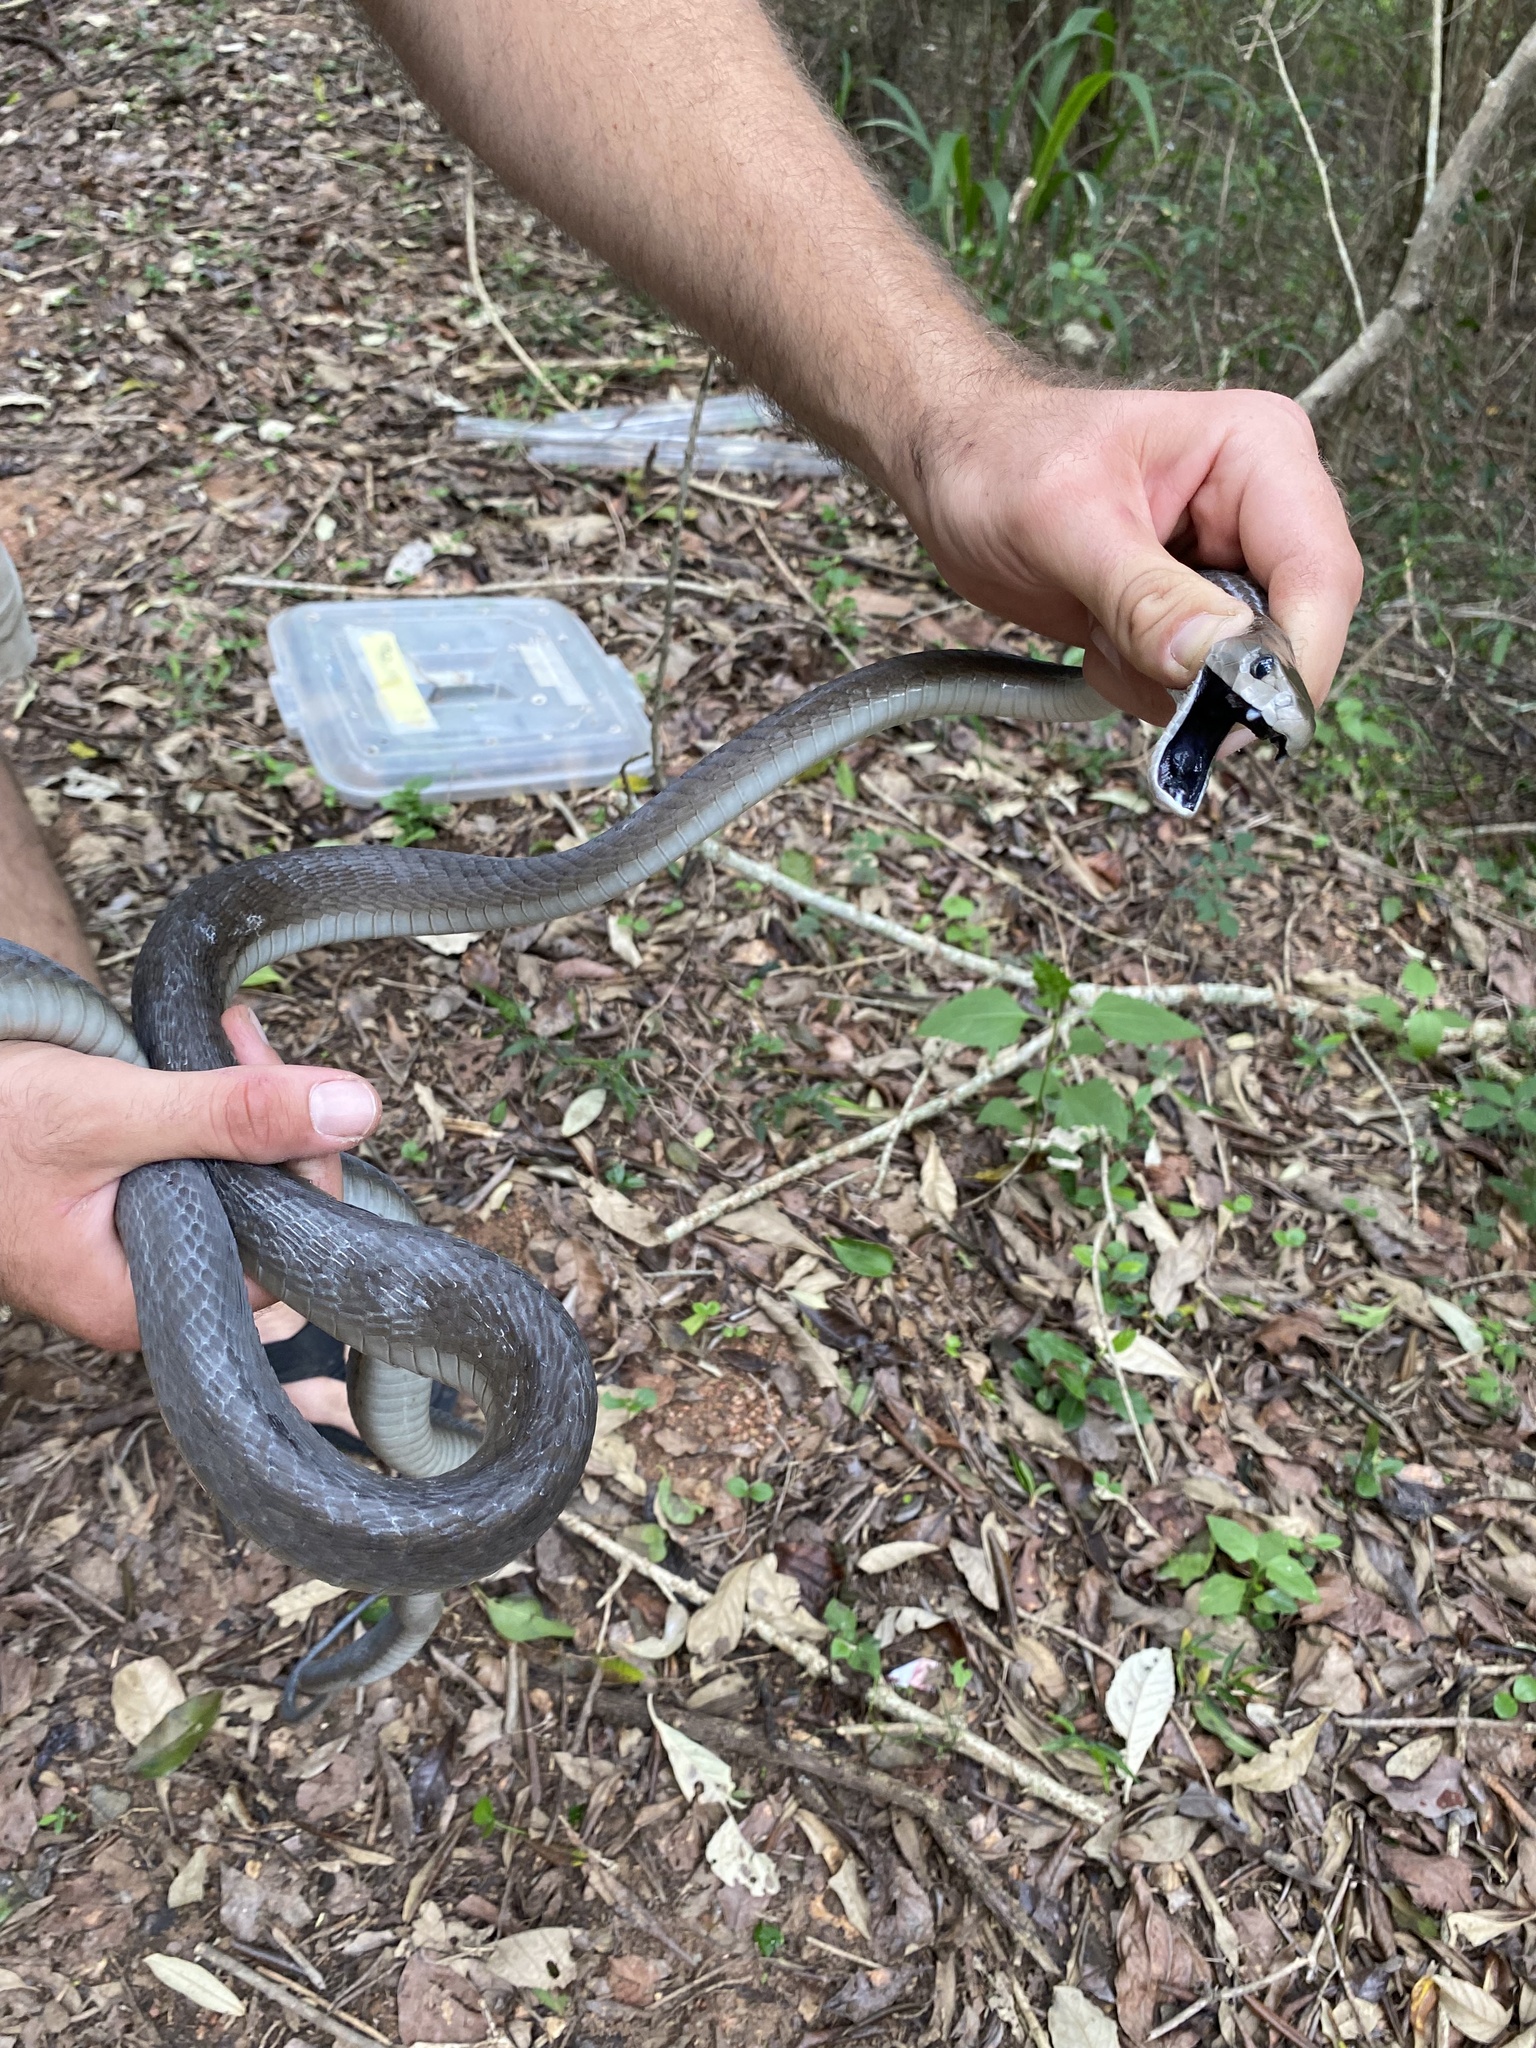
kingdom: Animalia
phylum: Chordata
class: Squamata
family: Elapidae
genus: Dendroaspis
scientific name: Dendroaspis polylepis
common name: Black mamba
